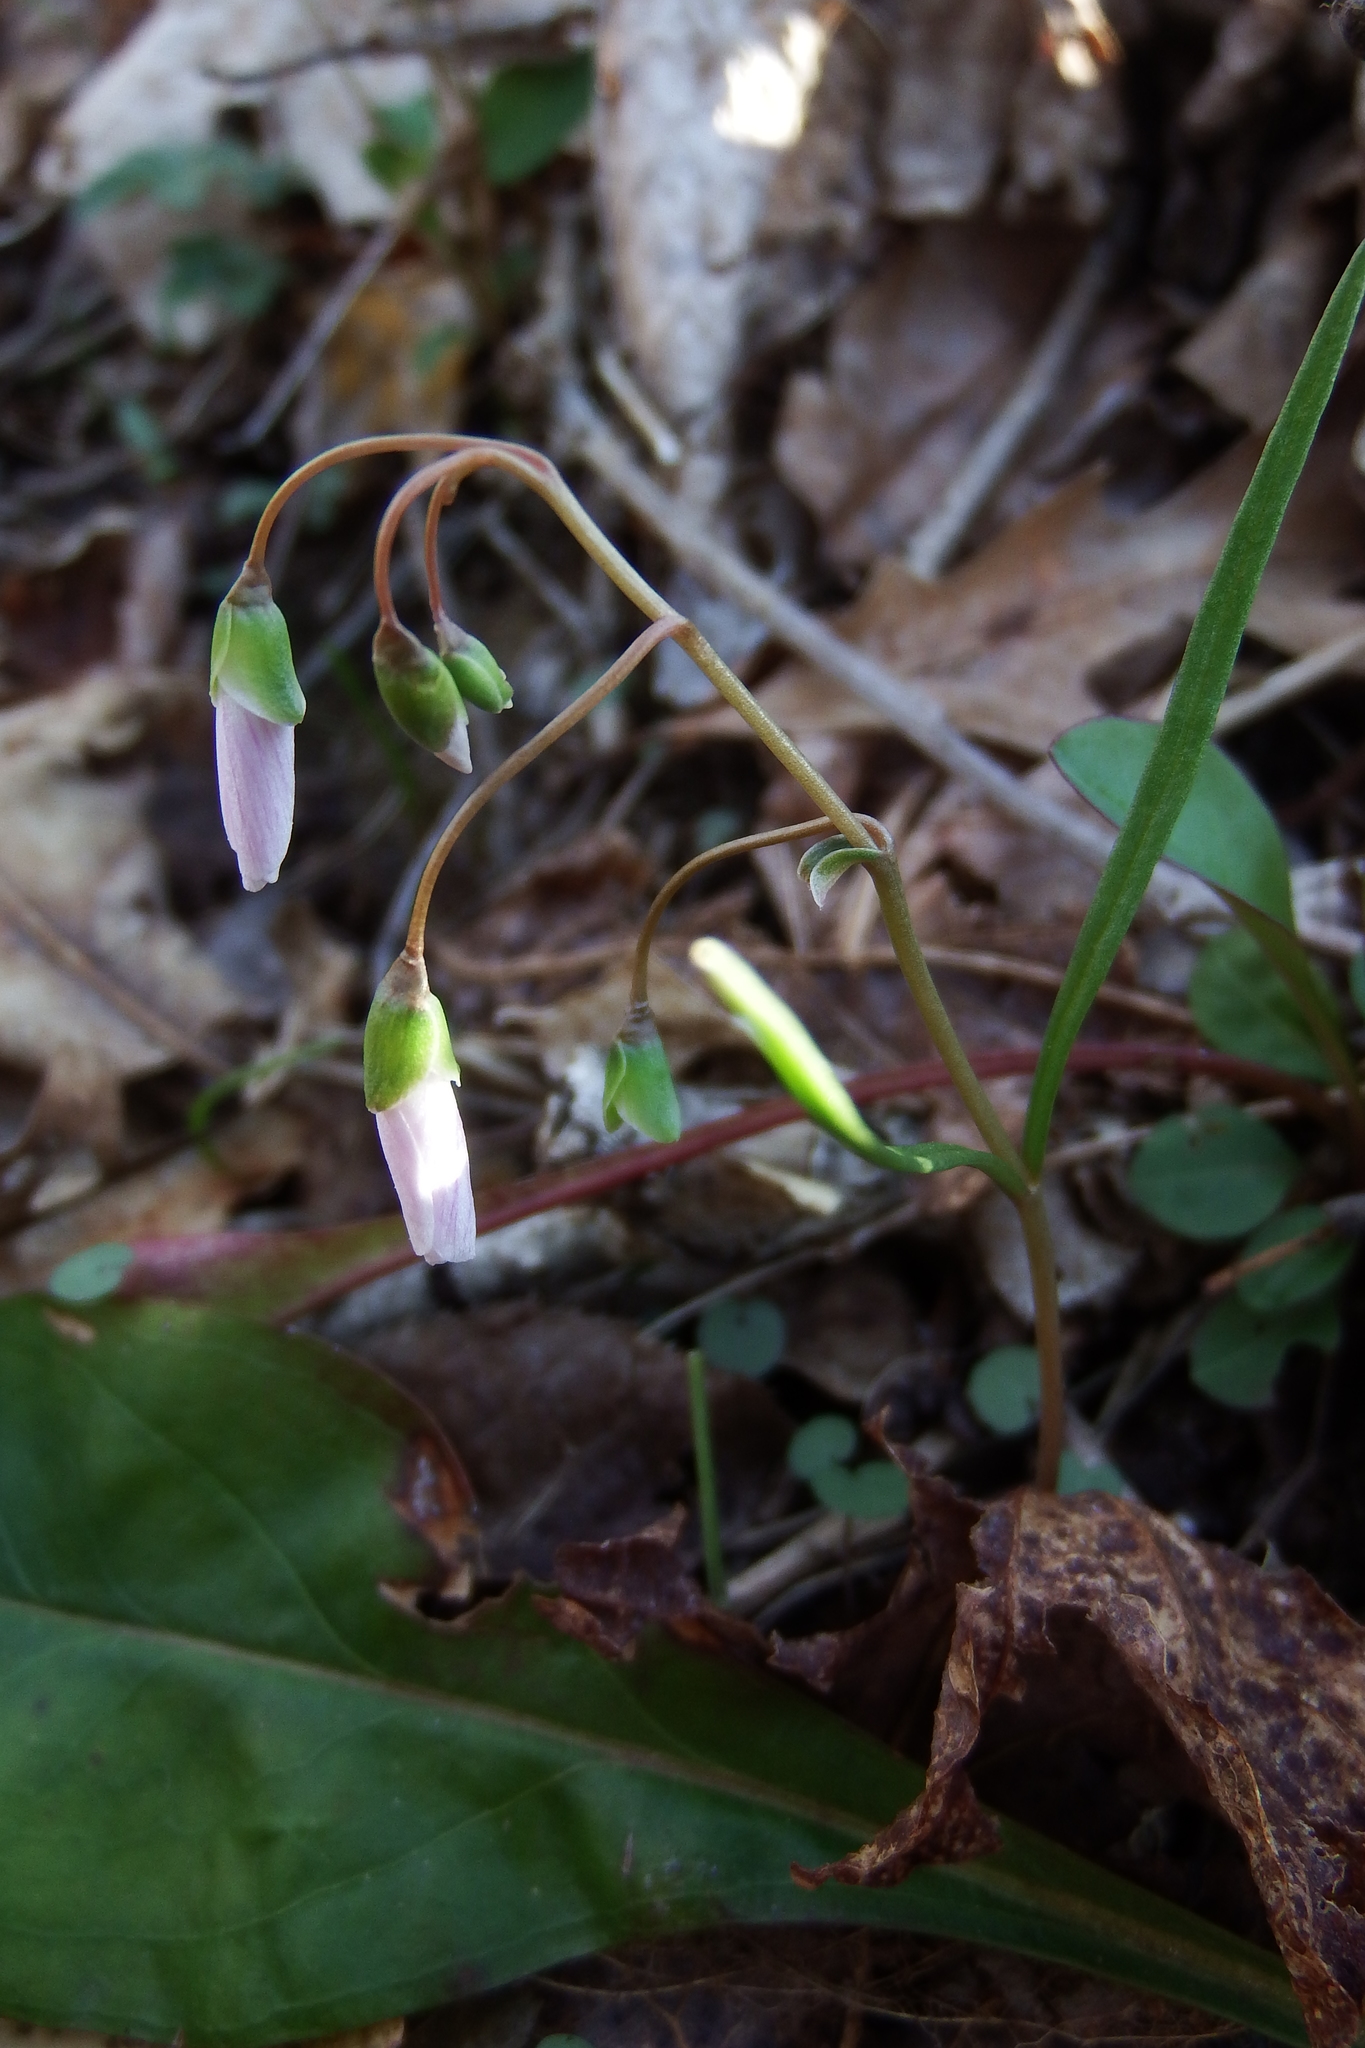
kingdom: Plantae
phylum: Tracheophyta
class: Magnoliopsida
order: Caryophyllales
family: Montiaceae
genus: Claytonia
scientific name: Claytonia virginica
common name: Virginia springbeauty
